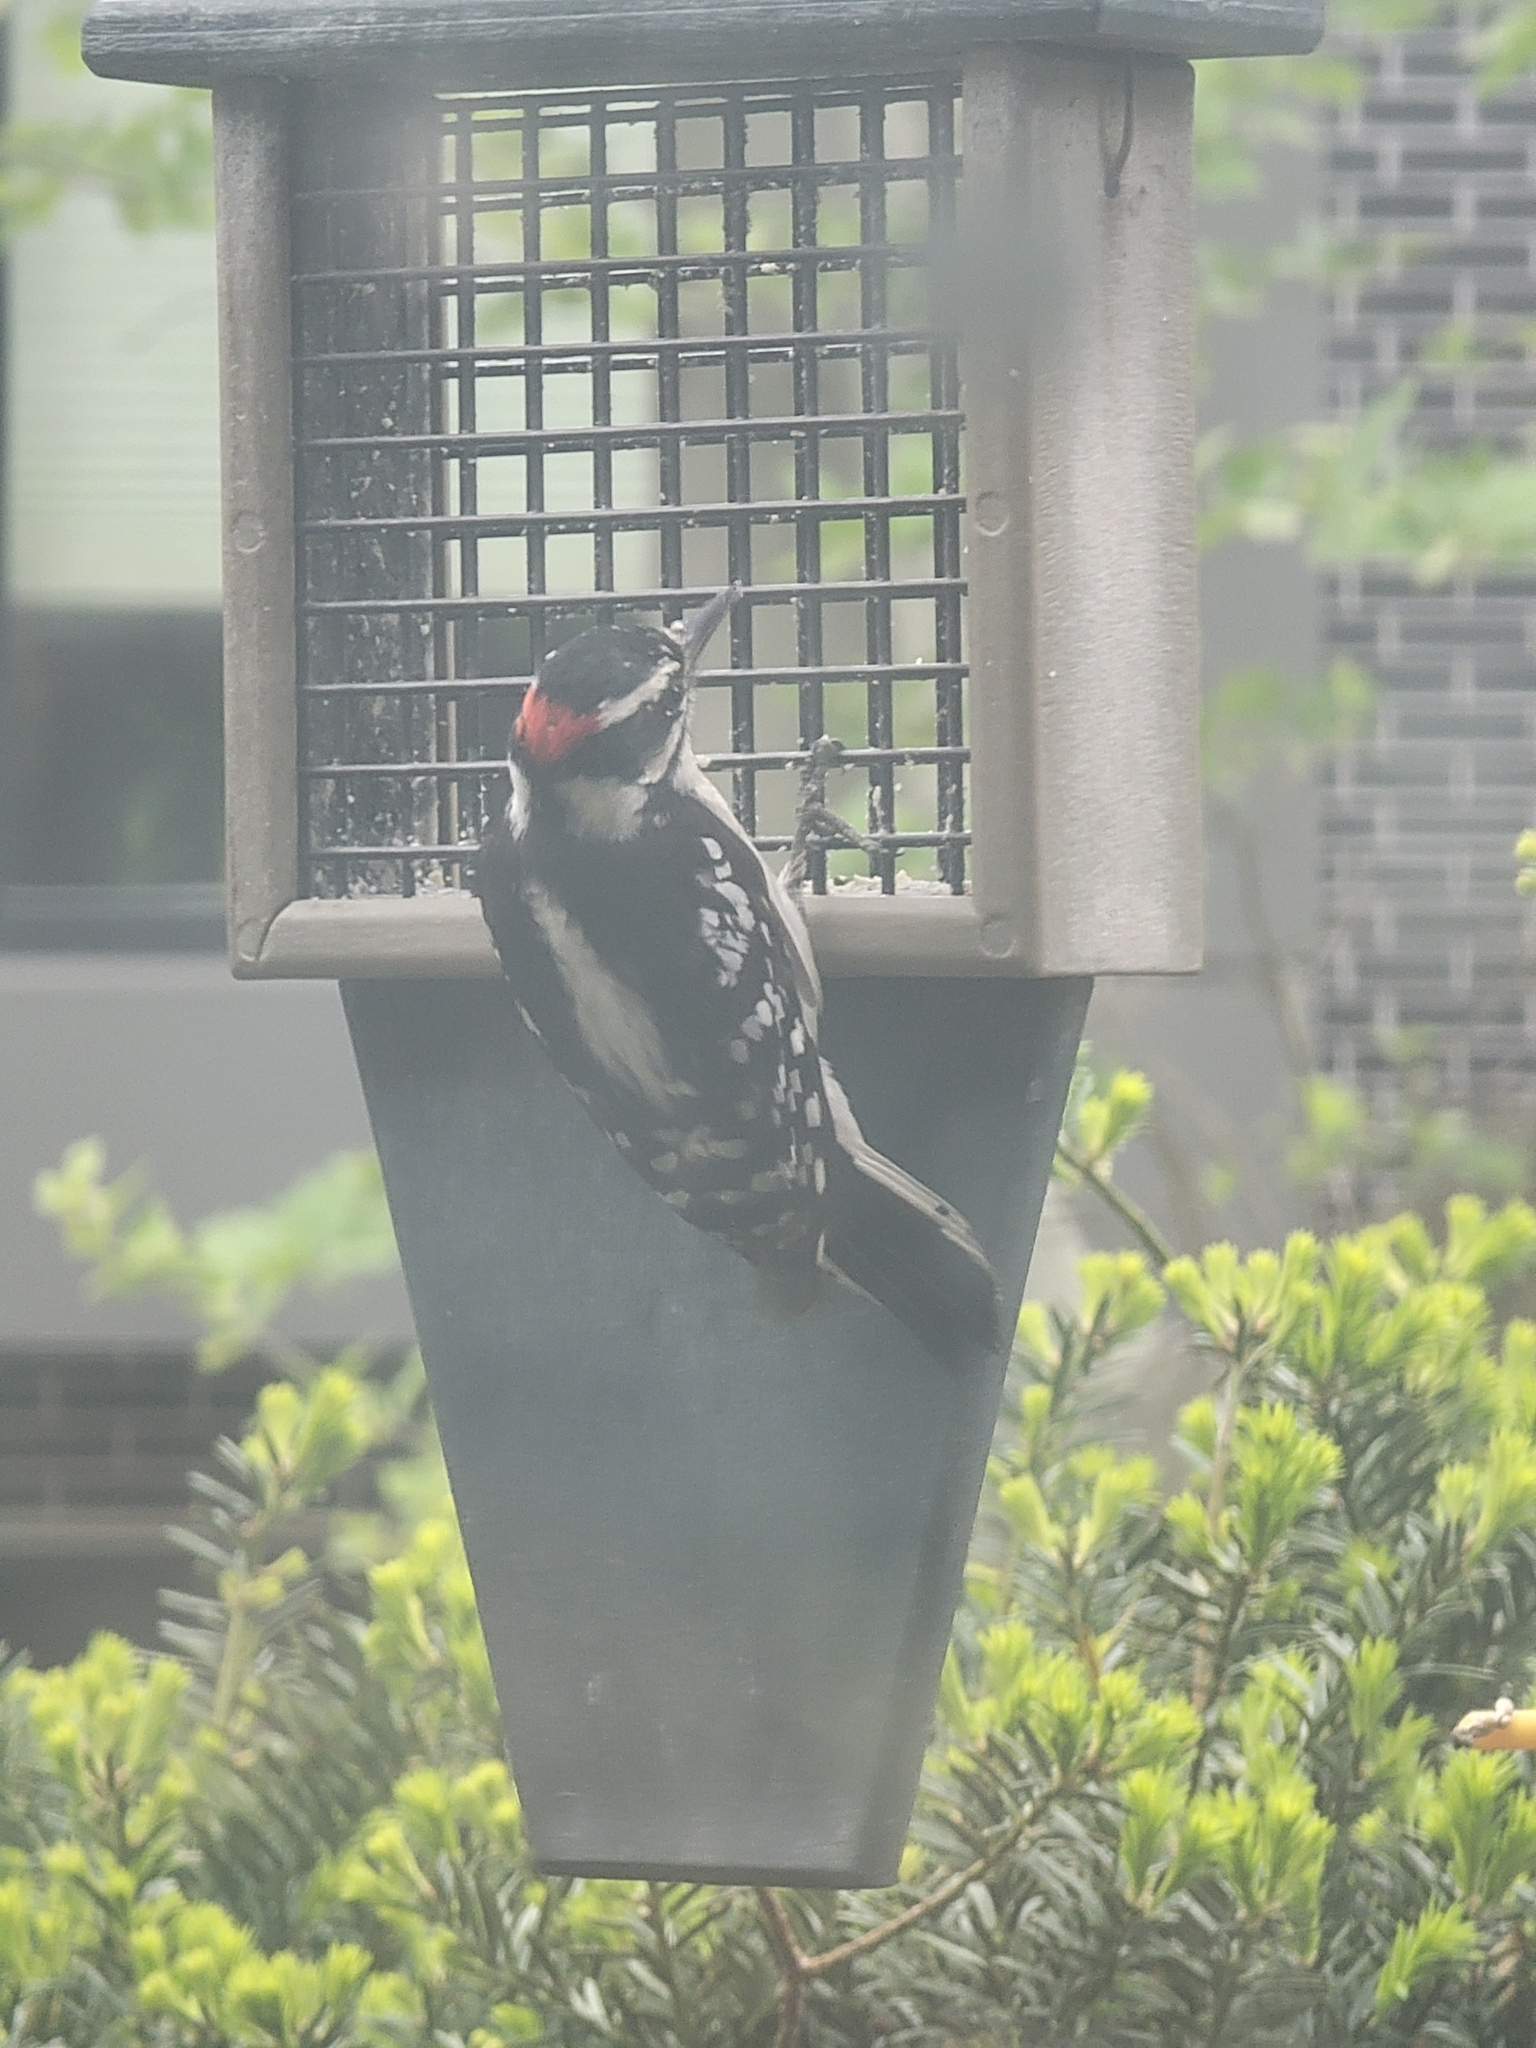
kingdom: Animalia
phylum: Chordata
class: Aves
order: Piciformes
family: Picidae
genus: Dryobates
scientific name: Dryobates pubescens
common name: Downy woodpecker
